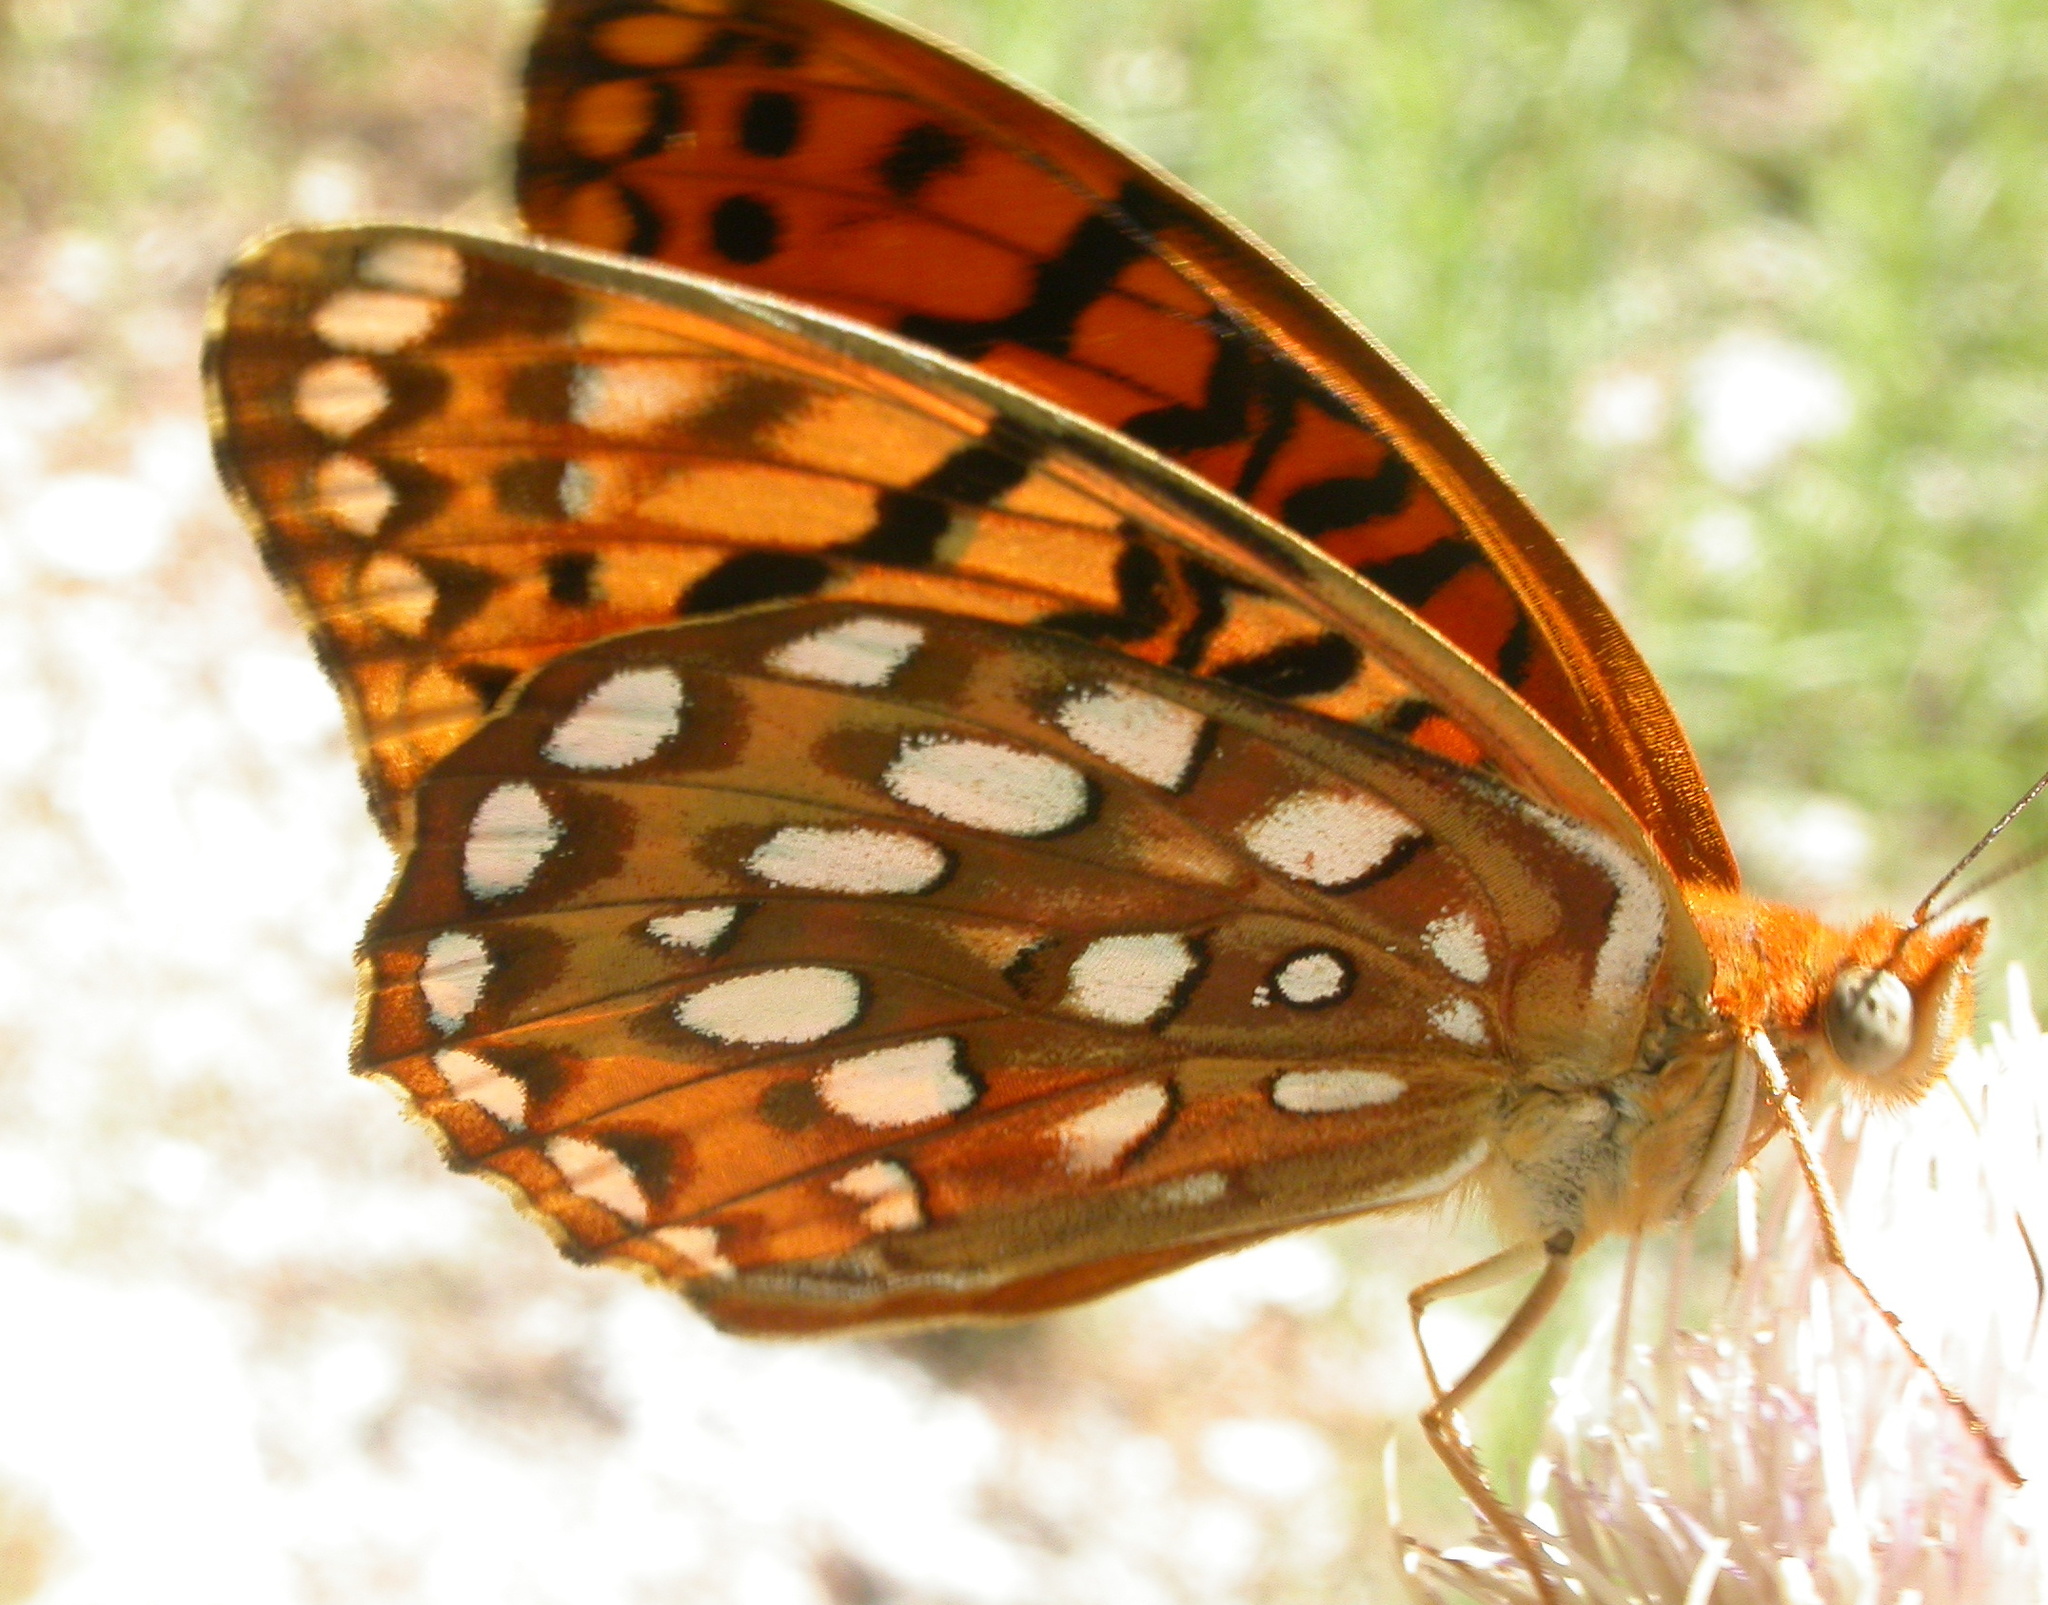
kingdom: Animalia
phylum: Arthropoda
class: Insecta
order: Lepidoptera
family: Nymphalidae
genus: Argynnis
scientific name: Argynnis coronis
